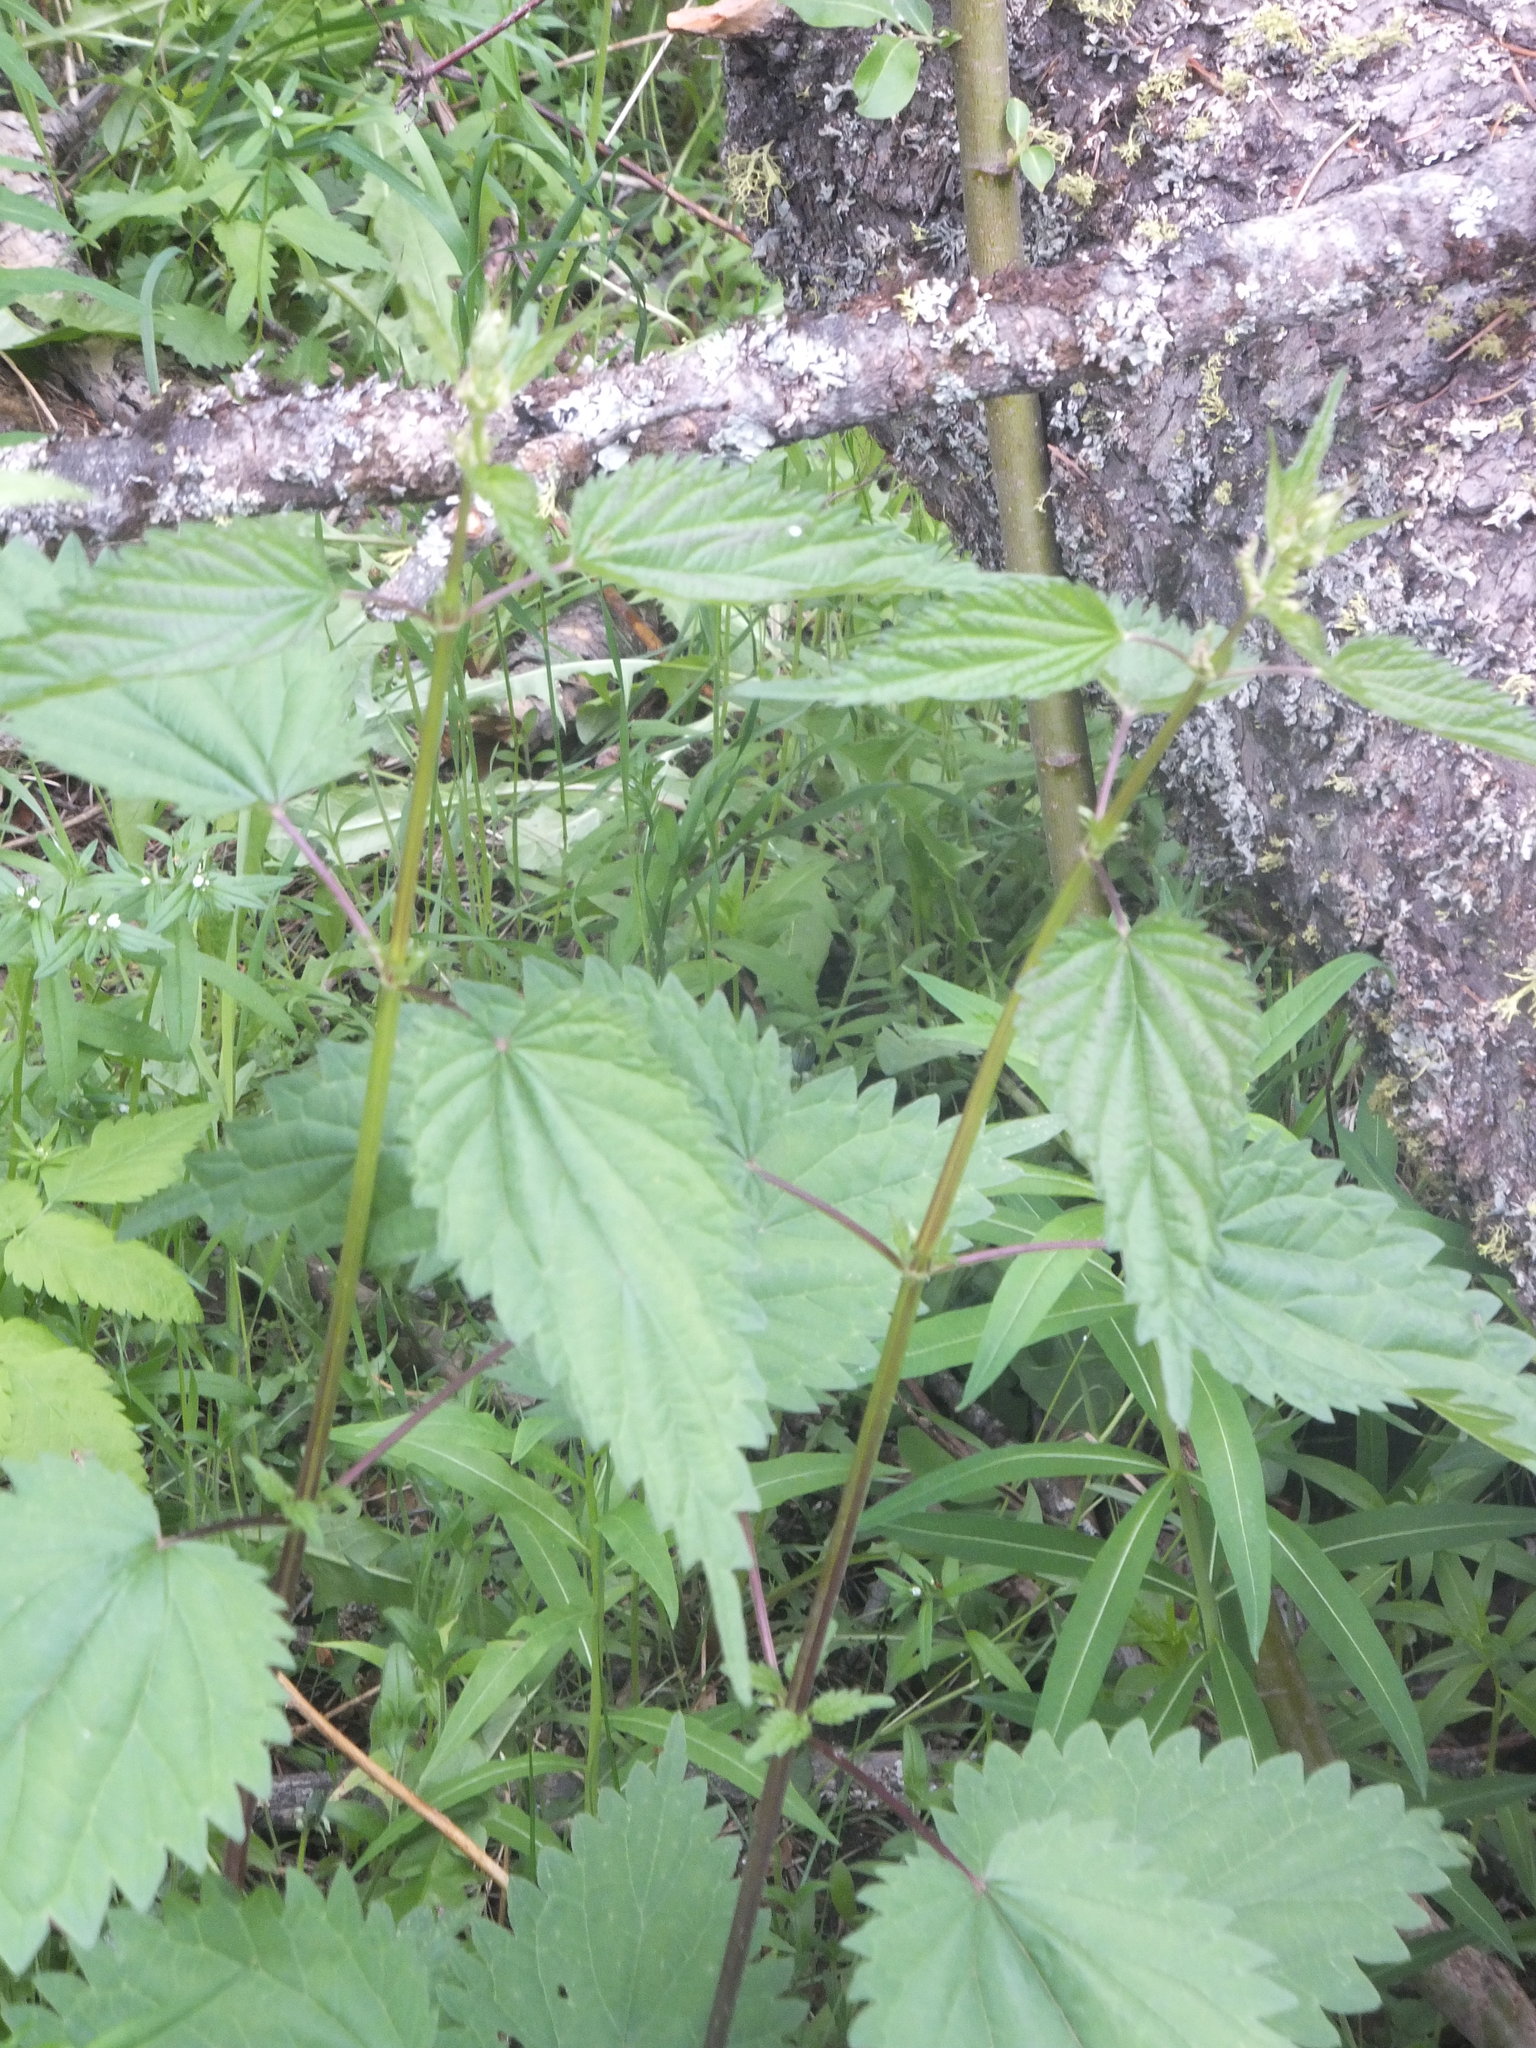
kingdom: Plantae
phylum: Tracheophyta
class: Magnoliopsida
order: Rosales
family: Urticaceae
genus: Urtica
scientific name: Urtica gracilis
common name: Slender stinging nettle
